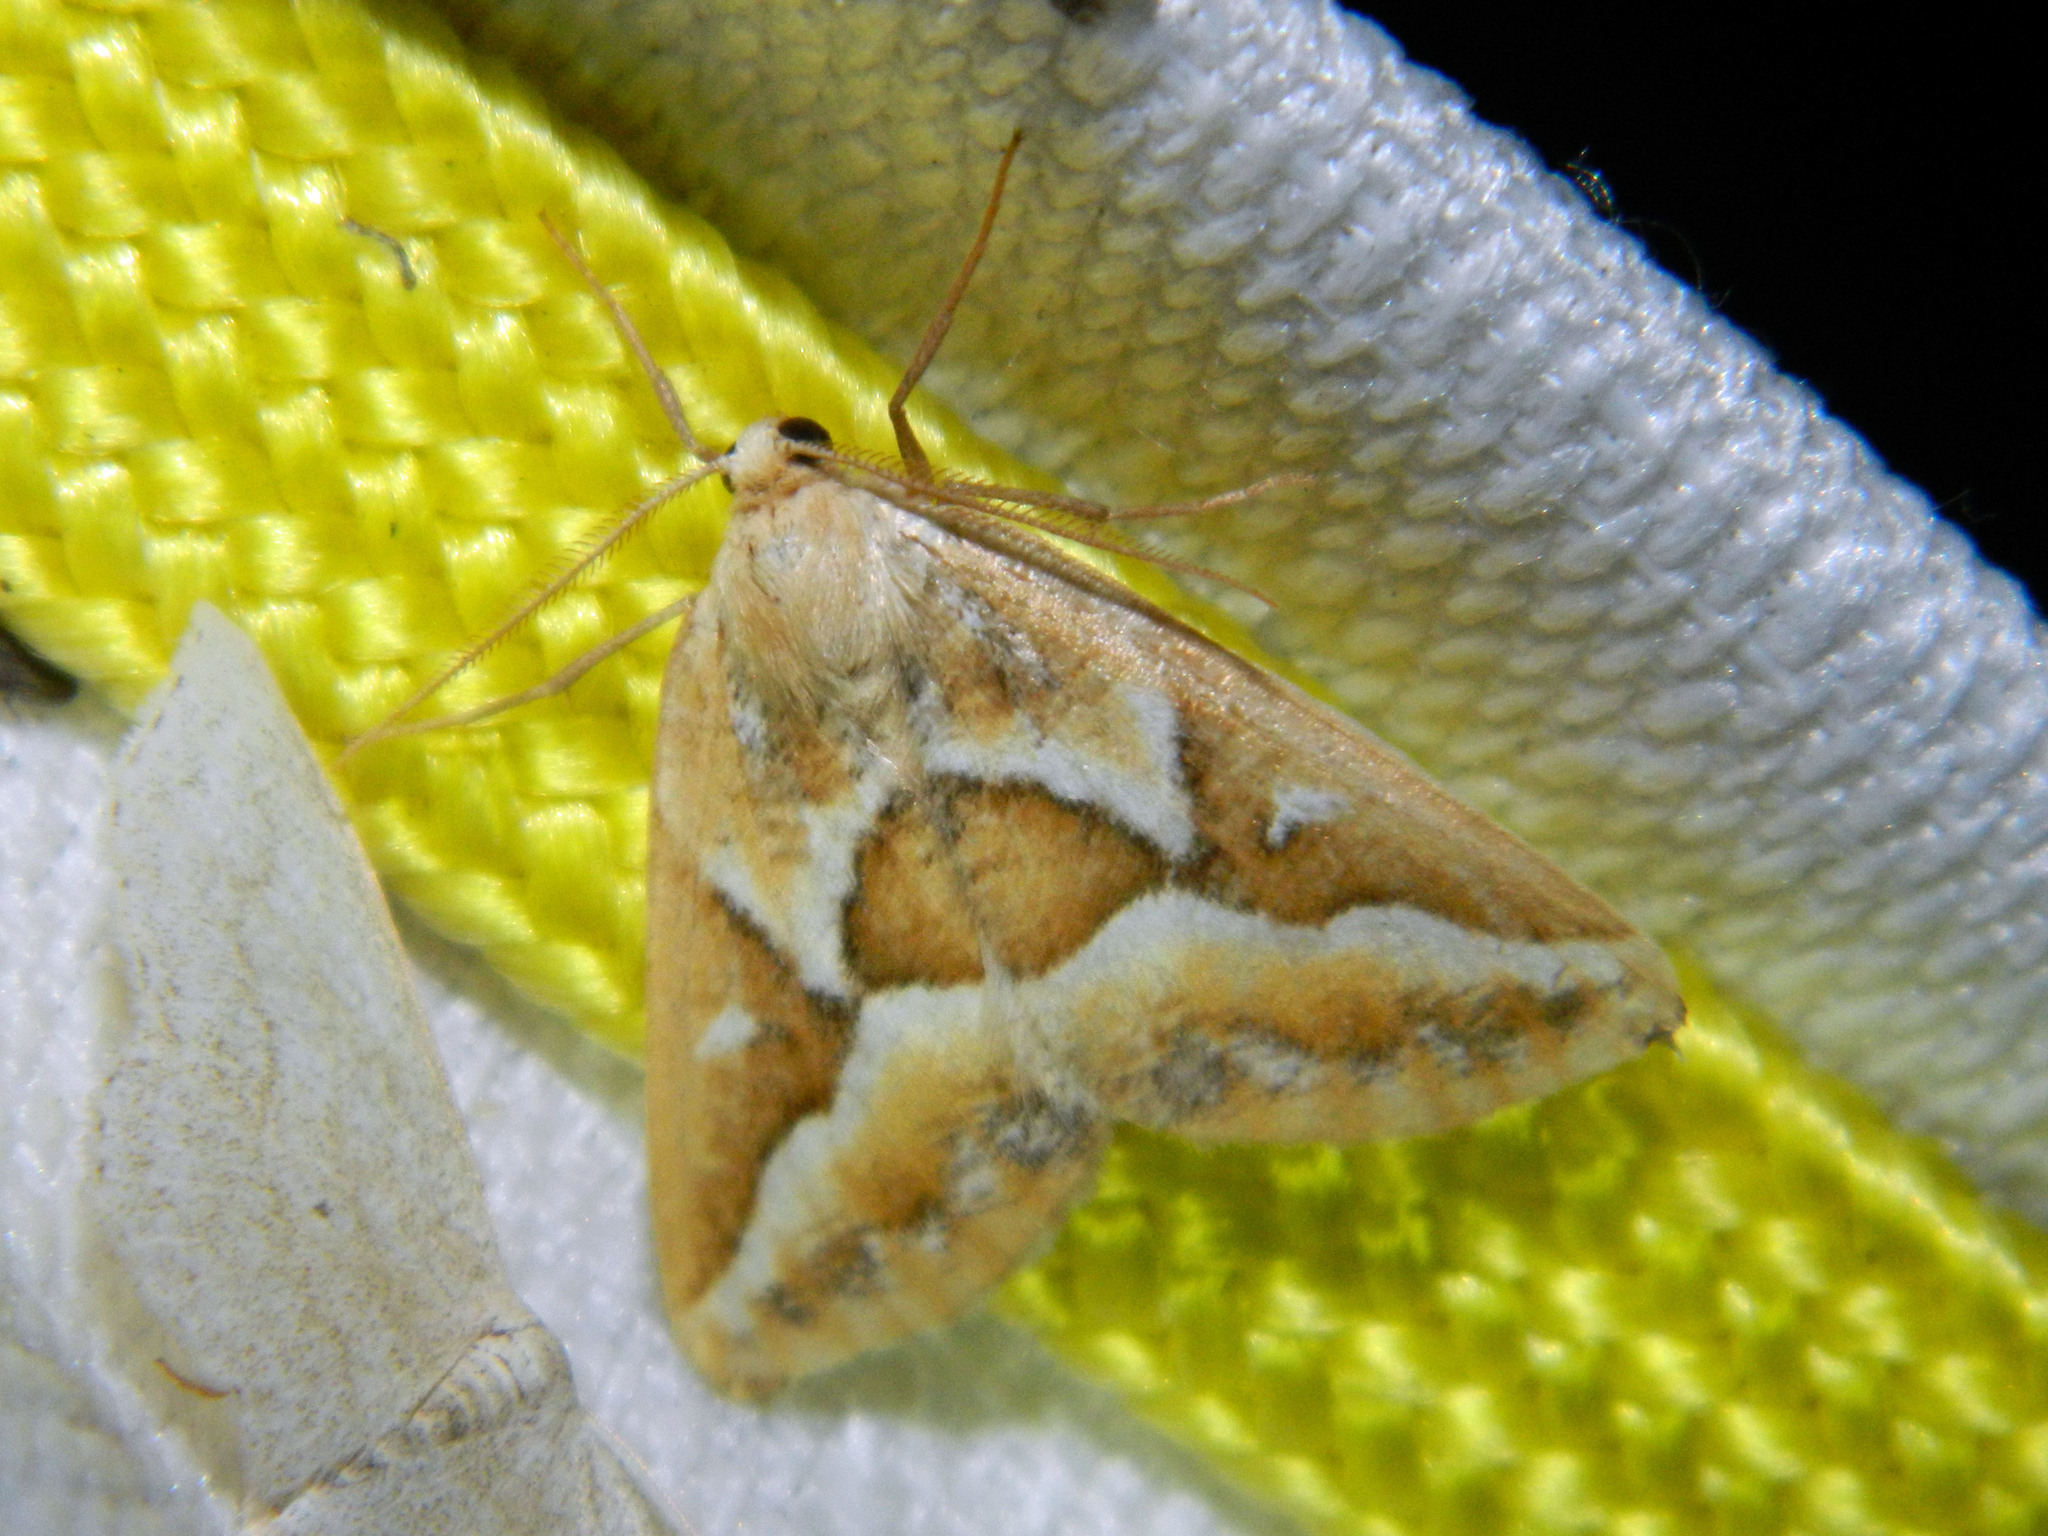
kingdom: Animalia
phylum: Arthropoda
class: Insecta
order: Lepidoptera
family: Geometridae
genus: Caripeta
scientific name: Caripeta angustiorata
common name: Brown pine looper
